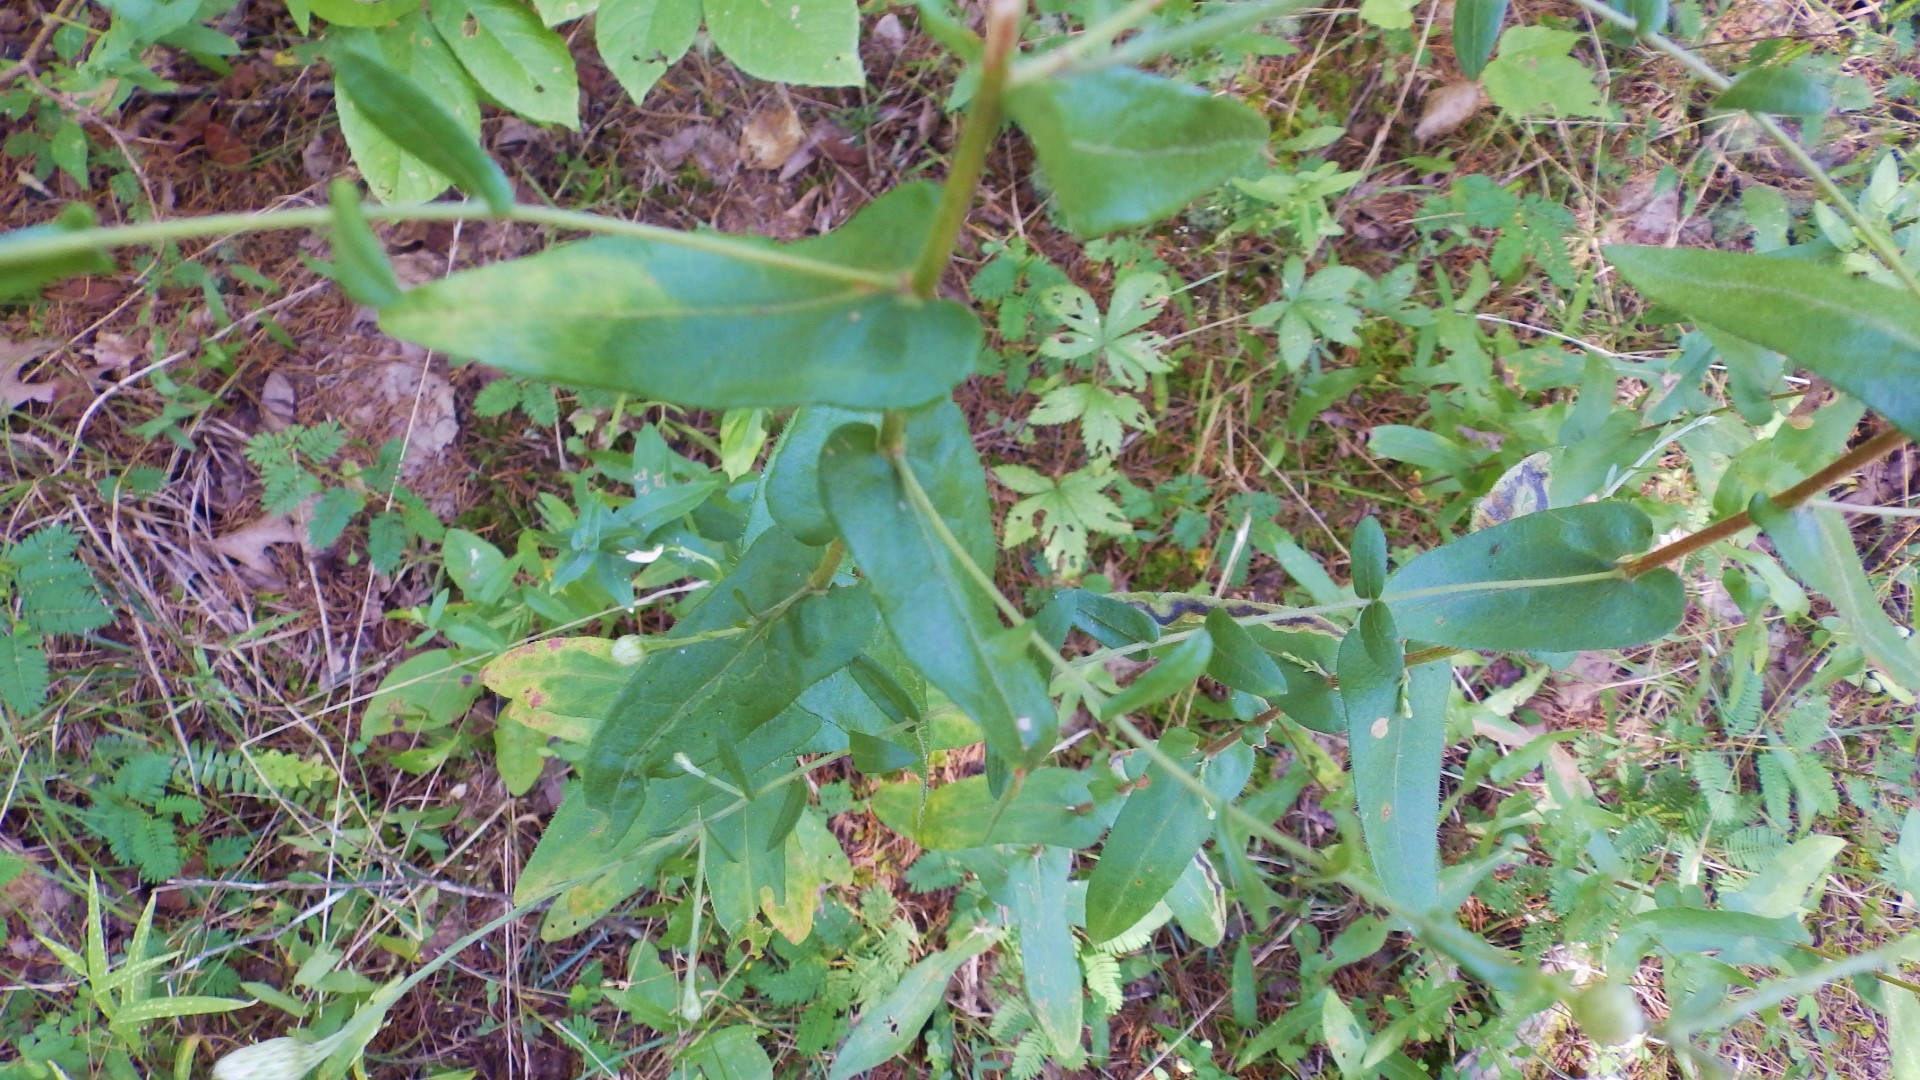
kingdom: Plantae
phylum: Tracheophyta
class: Magnoliopsida
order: Asterales
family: Asteraceae
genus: Symphyotrichum
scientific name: Symphyotrichum patens
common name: Late purple aster
